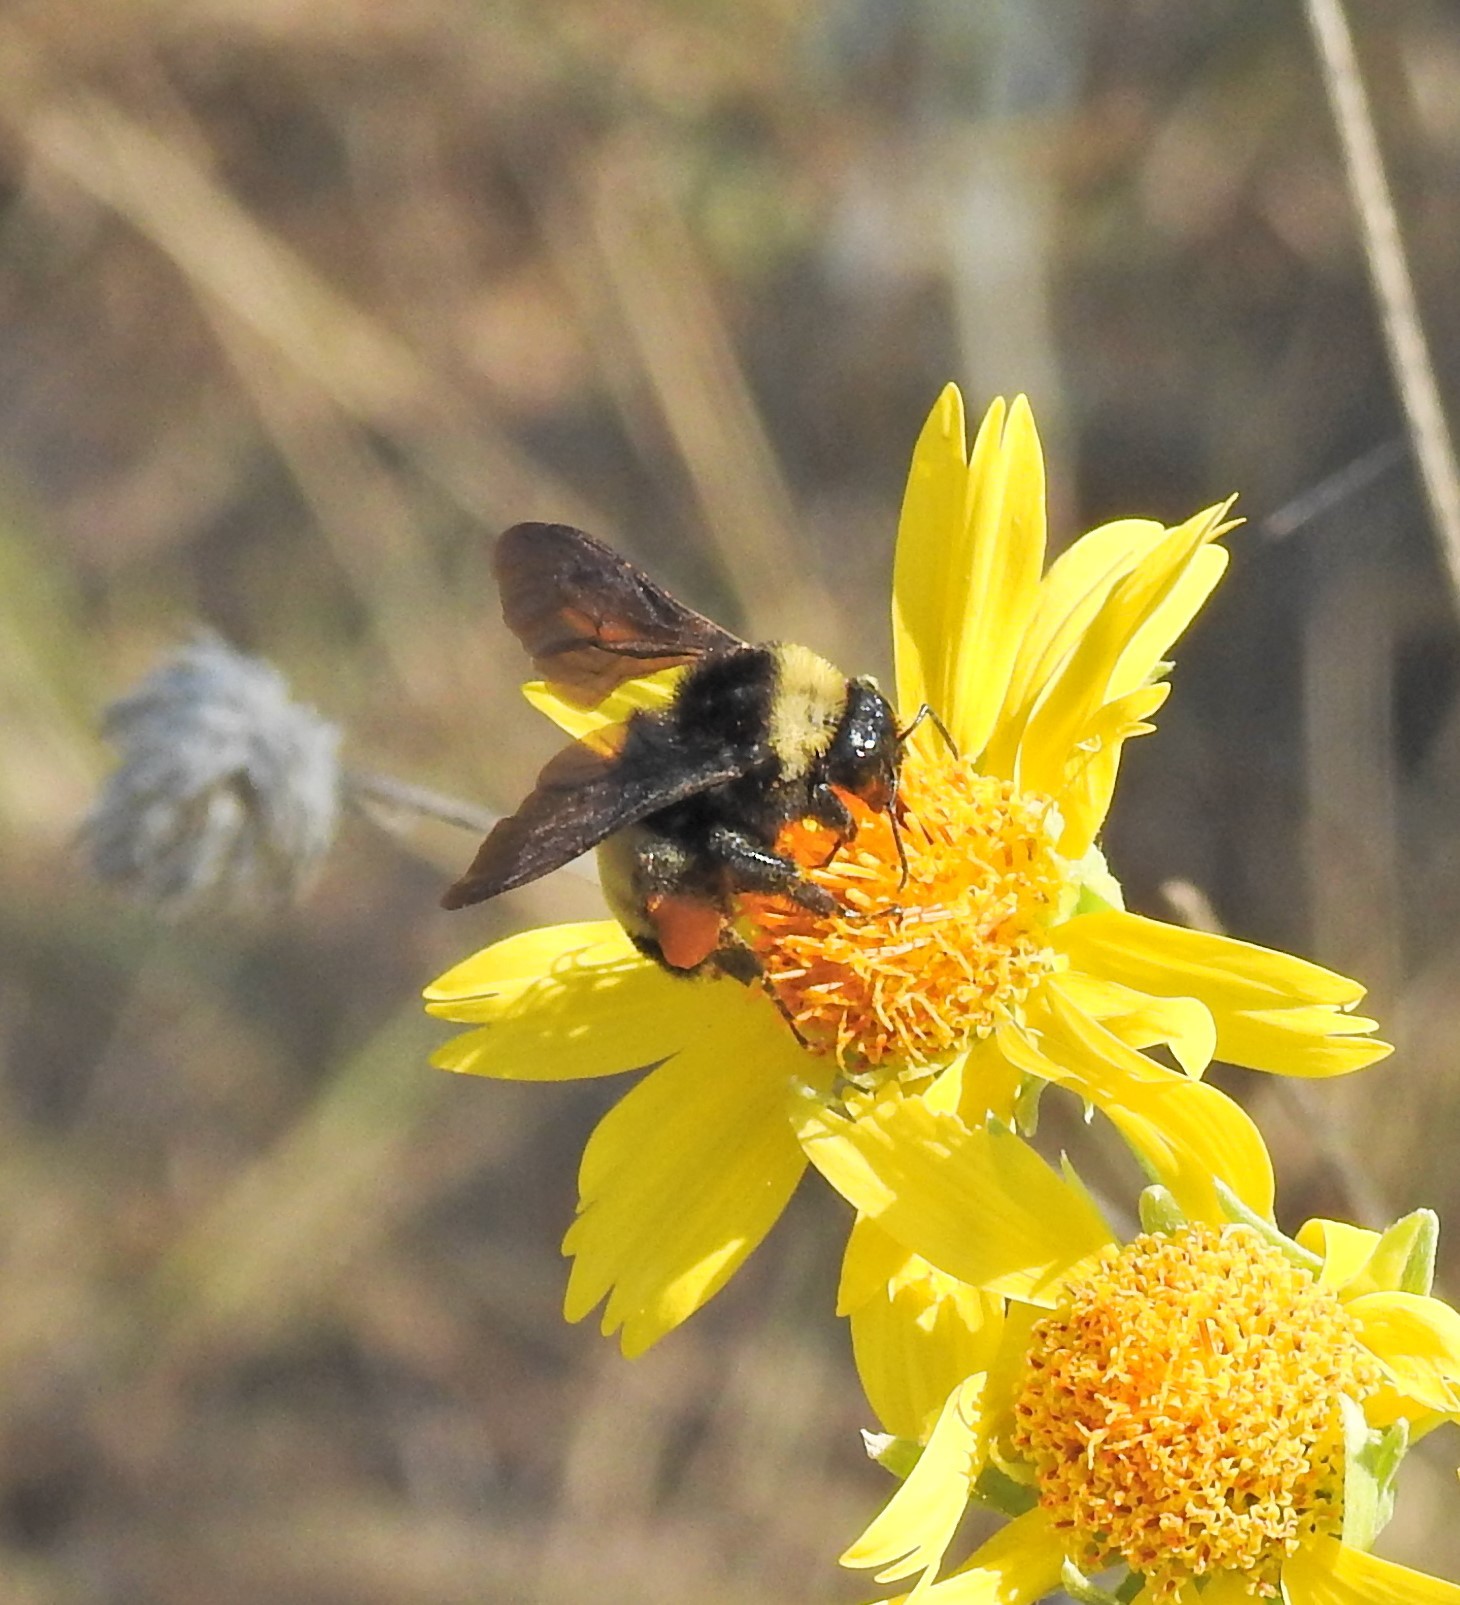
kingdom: Animalia
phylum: Arthropoda
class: Insecta
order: Hymenoptera
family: Apidae
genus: Bombus
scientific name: Bombus pensylvanicus
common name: Bumble bee
